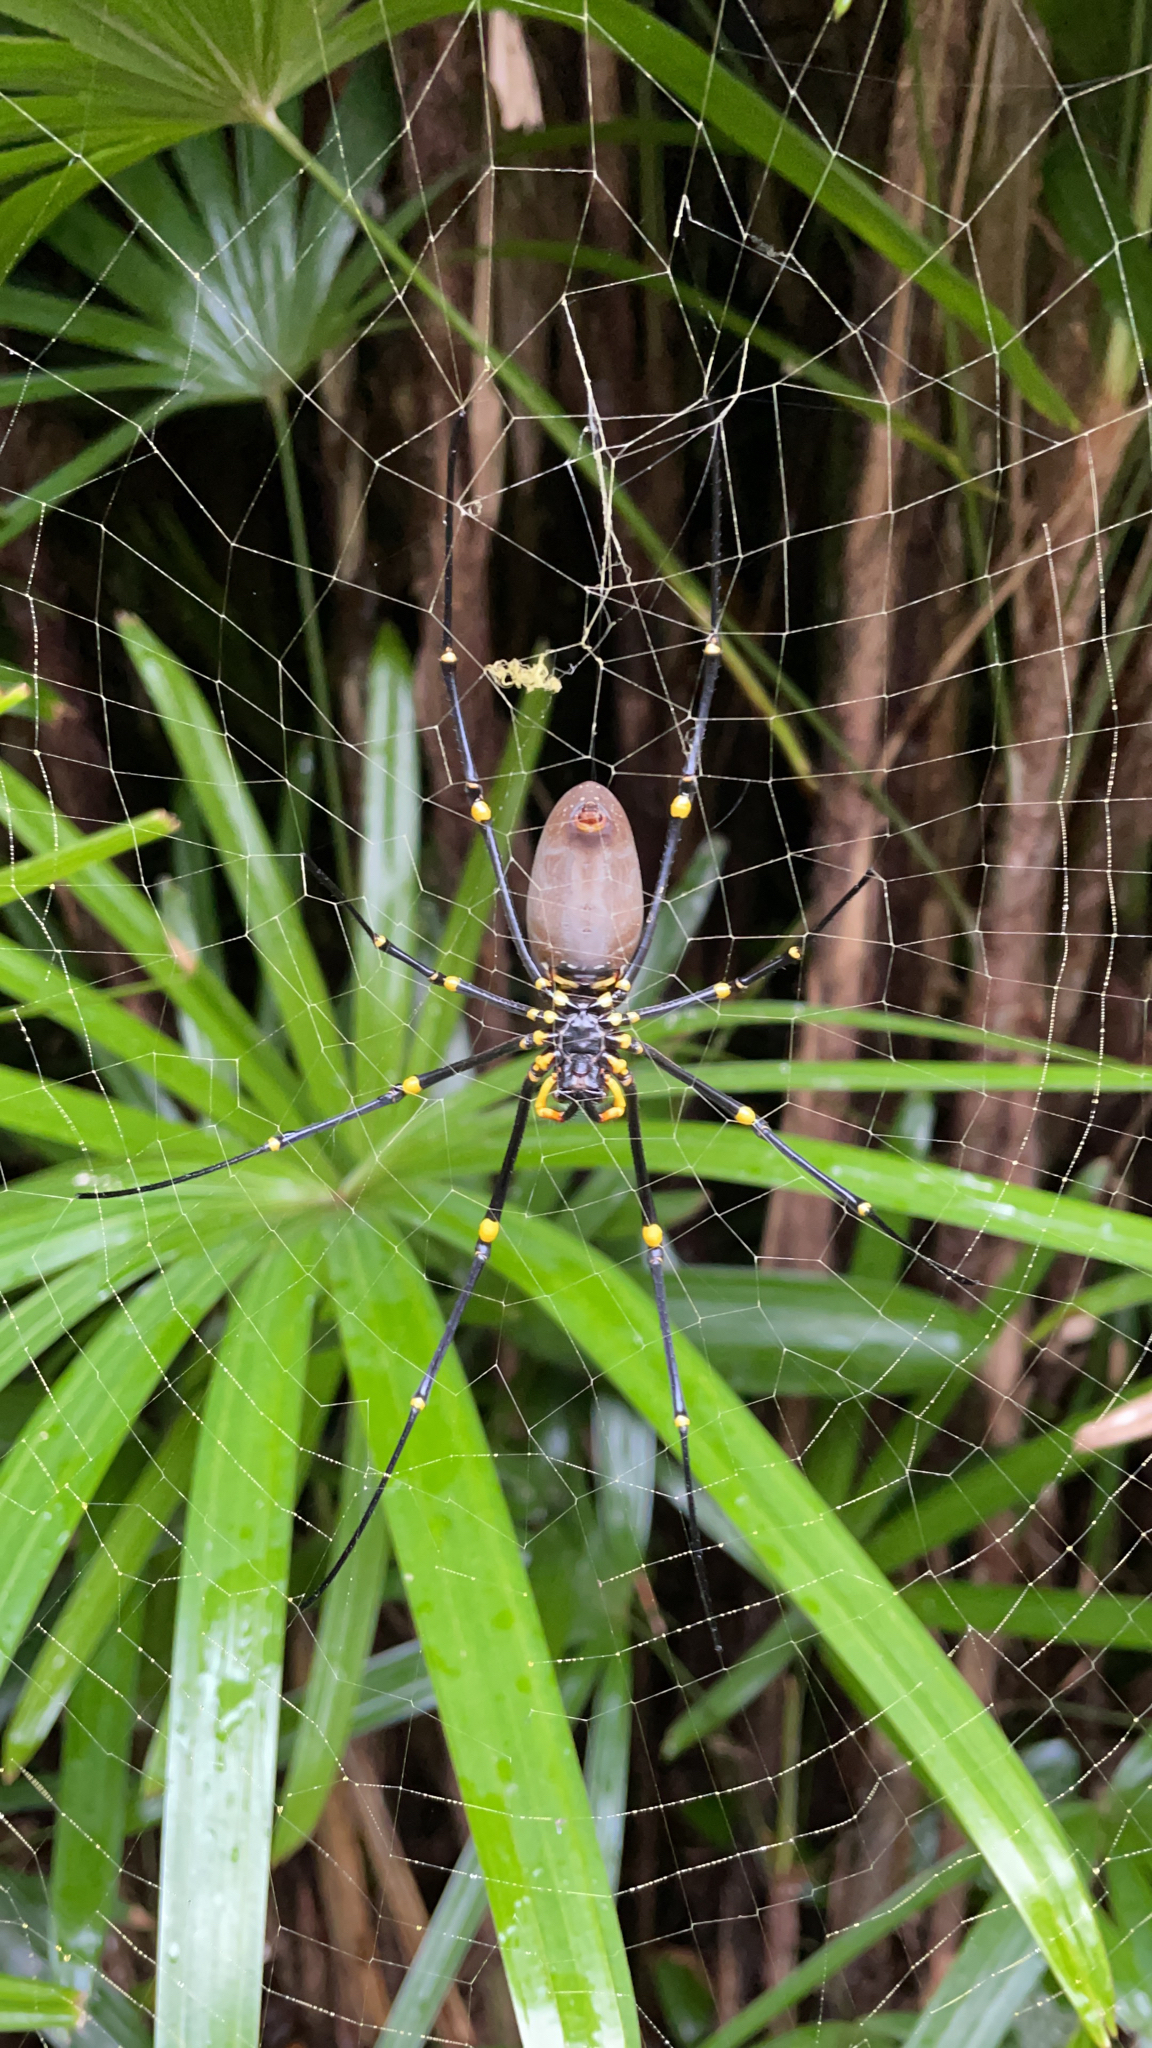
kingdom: Animalia
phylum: Arthropoda
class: Arachnida
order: Araneae
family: Araneidae
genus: Nephila
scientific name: Nephila pilipes
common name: Giant golden orb weaver
